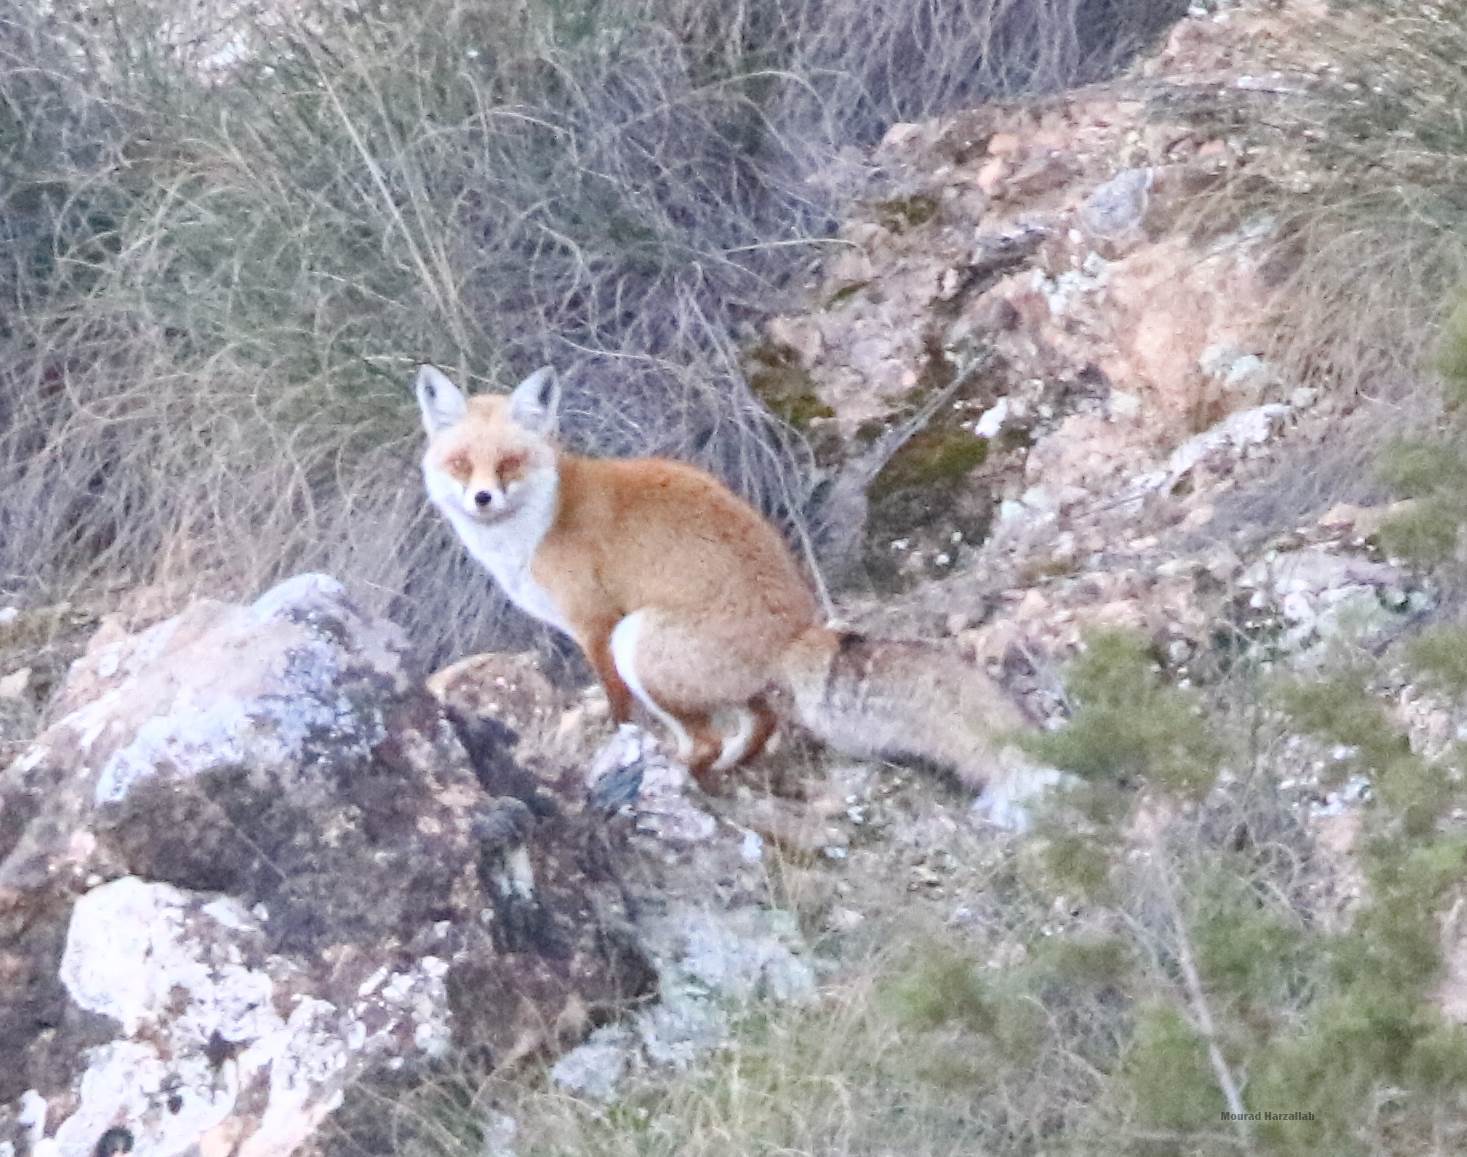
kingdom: Animalia
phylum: Chordata
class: Mammalia
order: Carnivora
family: Canidae
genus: Vulpes
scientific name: Vulpes vulpes
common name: Red fox
